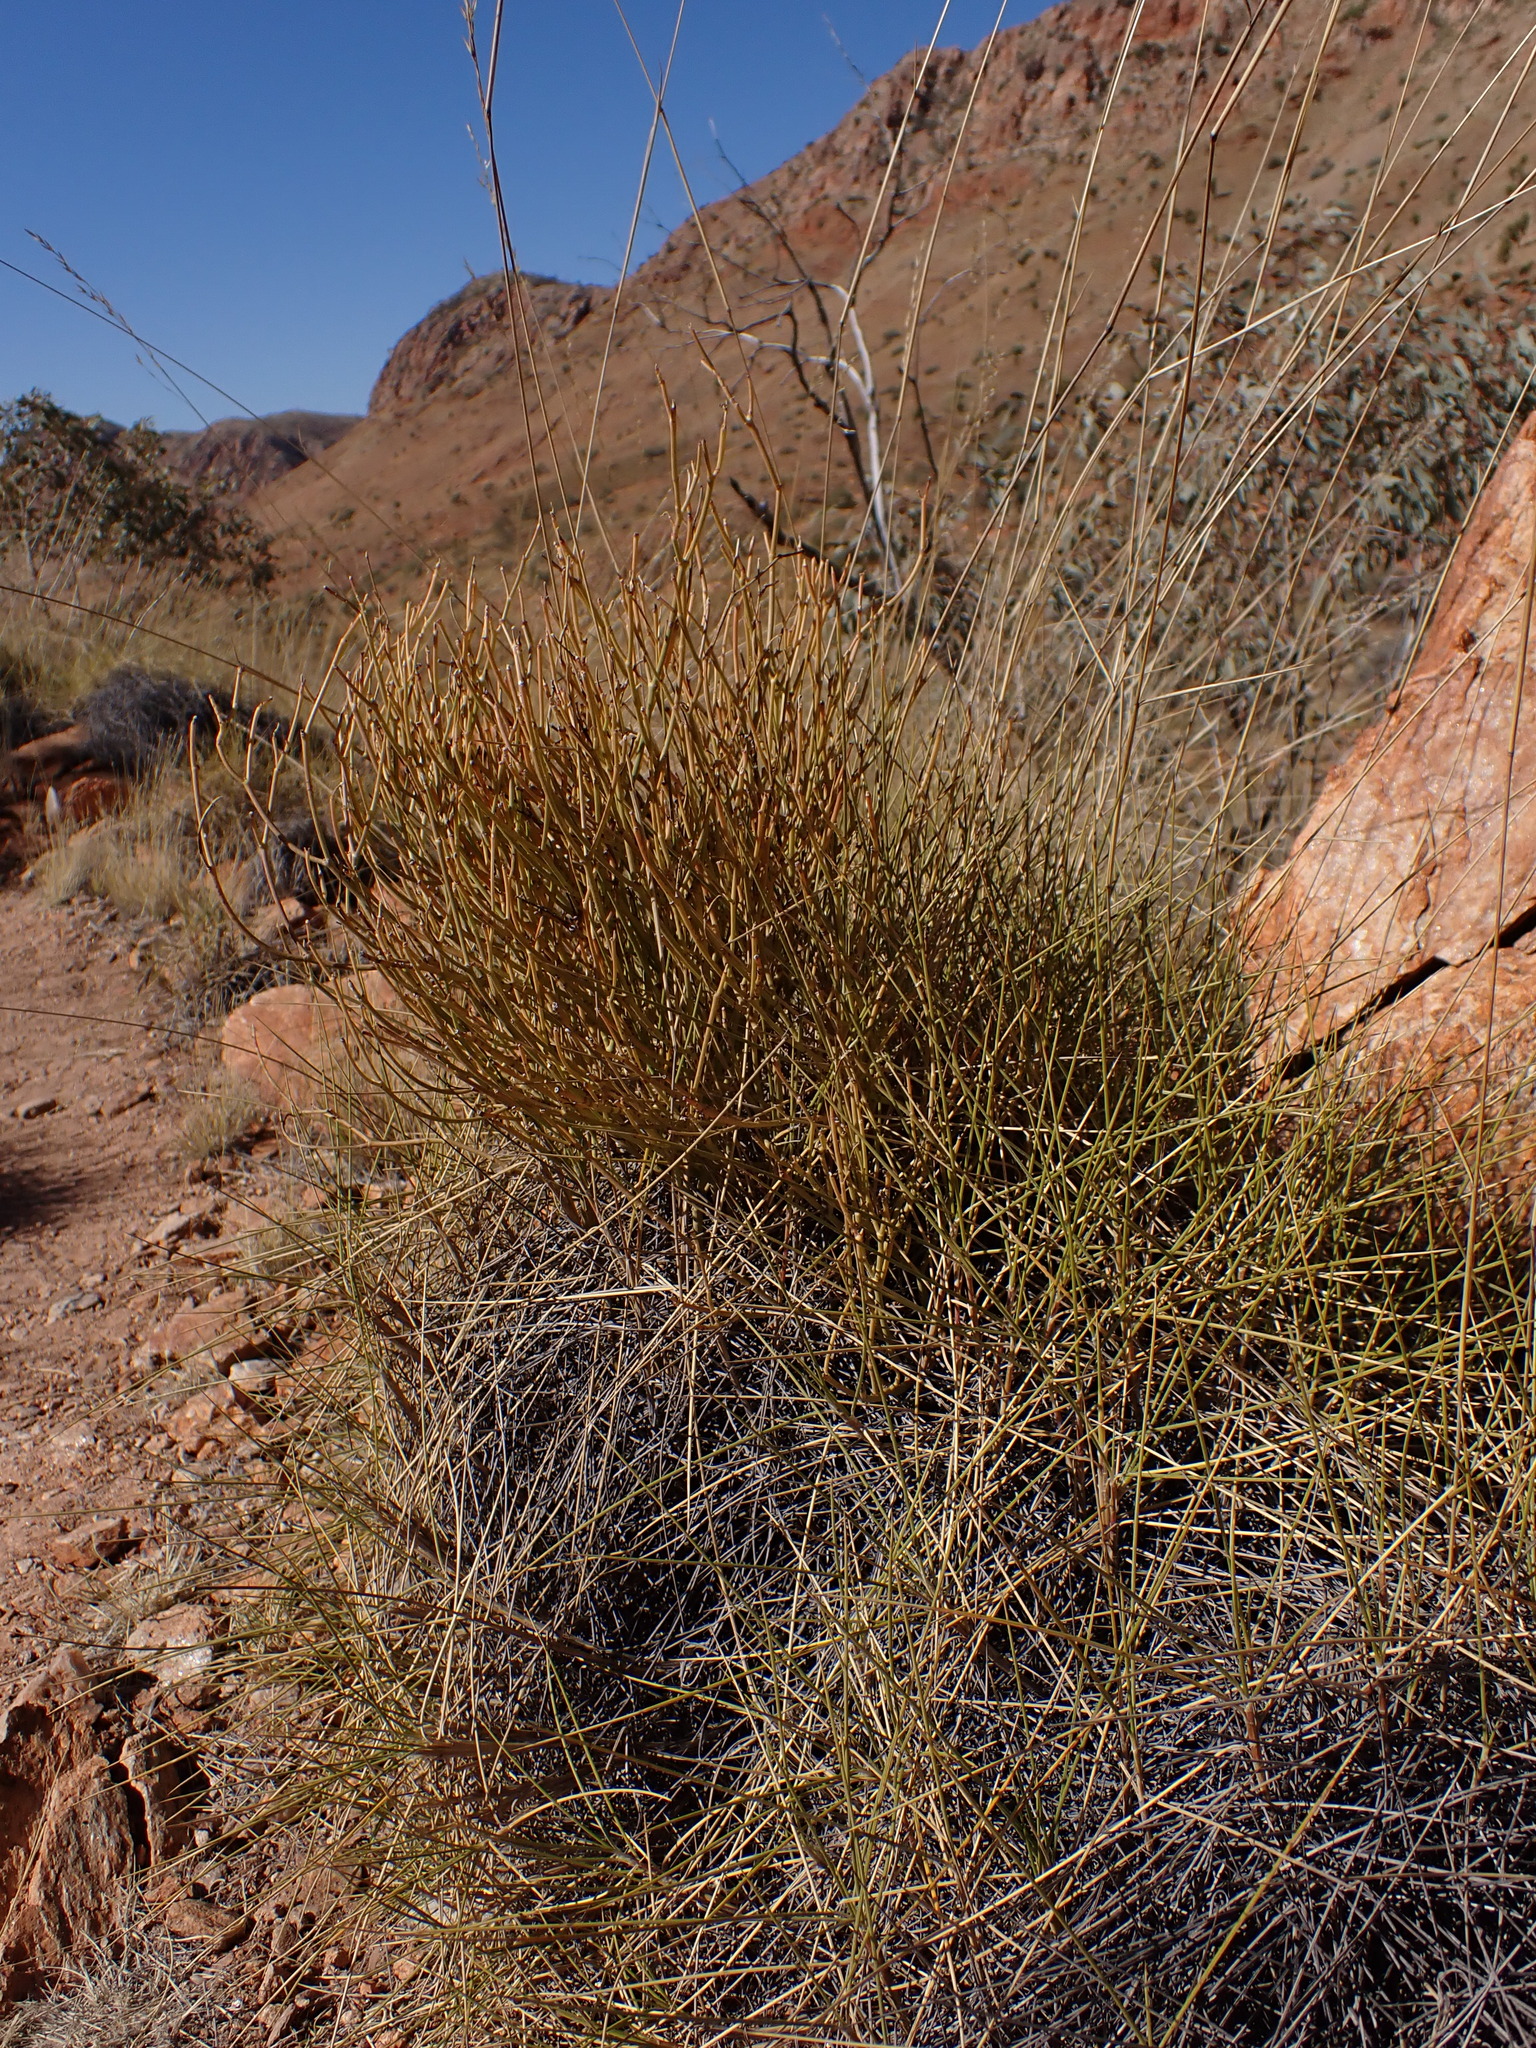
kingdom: Plantae
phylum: Tracheophyta
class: Magnoliopsida
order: Gentianales
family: Apocynaceae
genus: Cynanchum
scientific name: Cynanchum viminale
